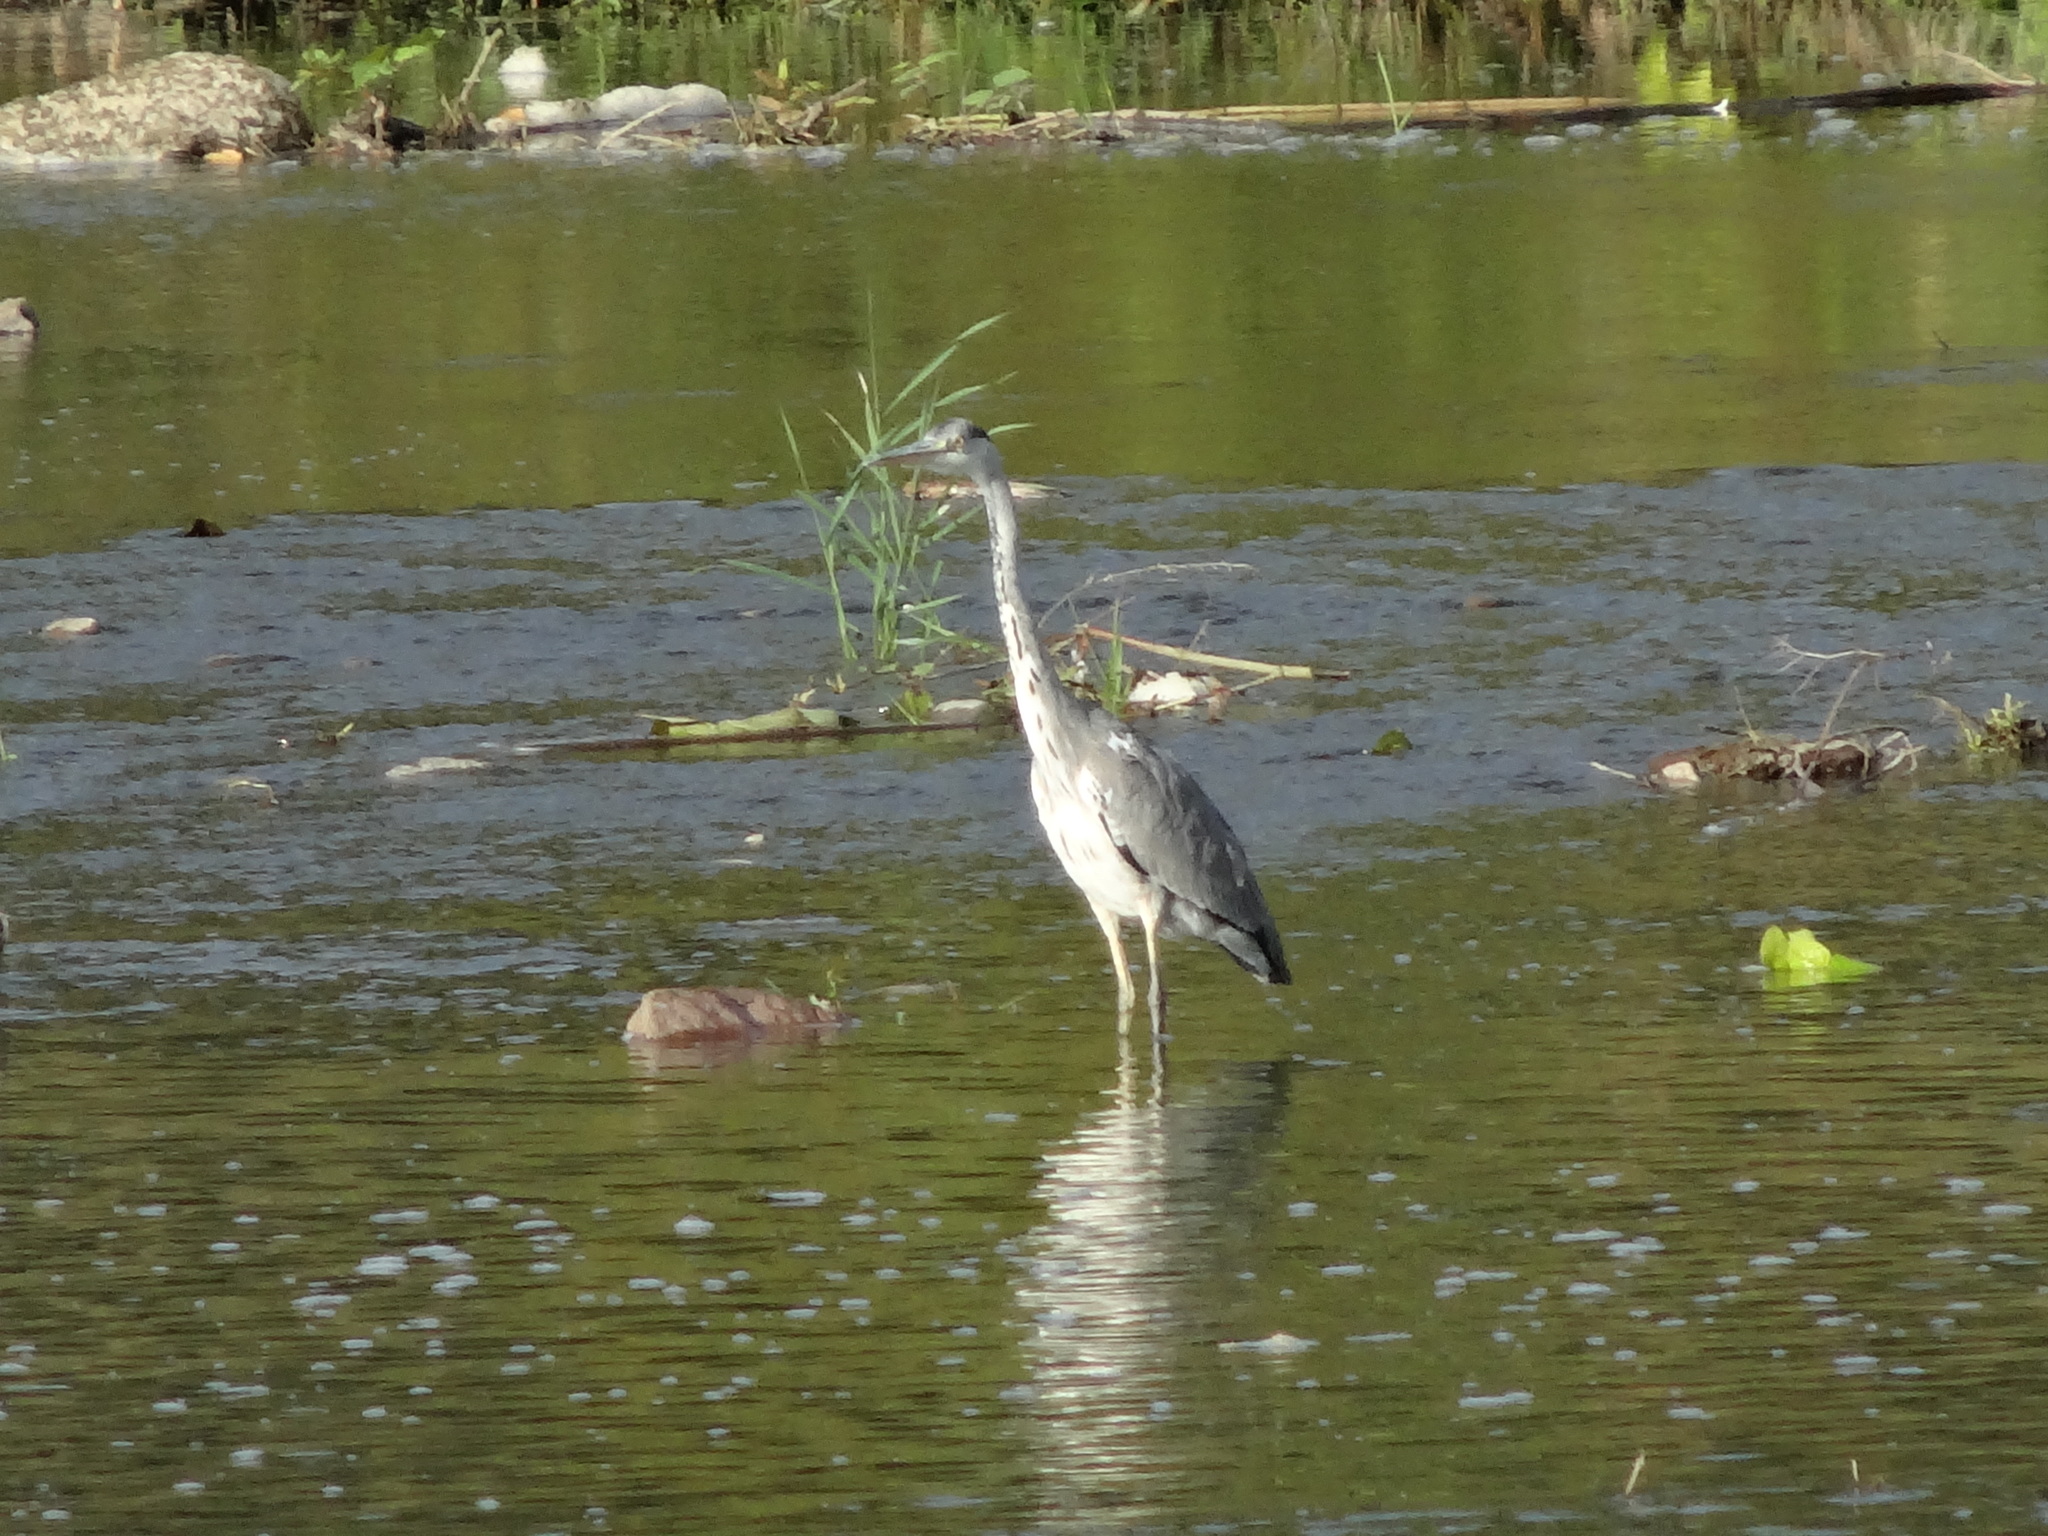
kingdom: Animalia
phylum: Chordata
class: Aves
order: Pelecaniformes
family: Ardeidae
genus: Ardea
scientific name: Ardea cinerea
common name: Grey heron
